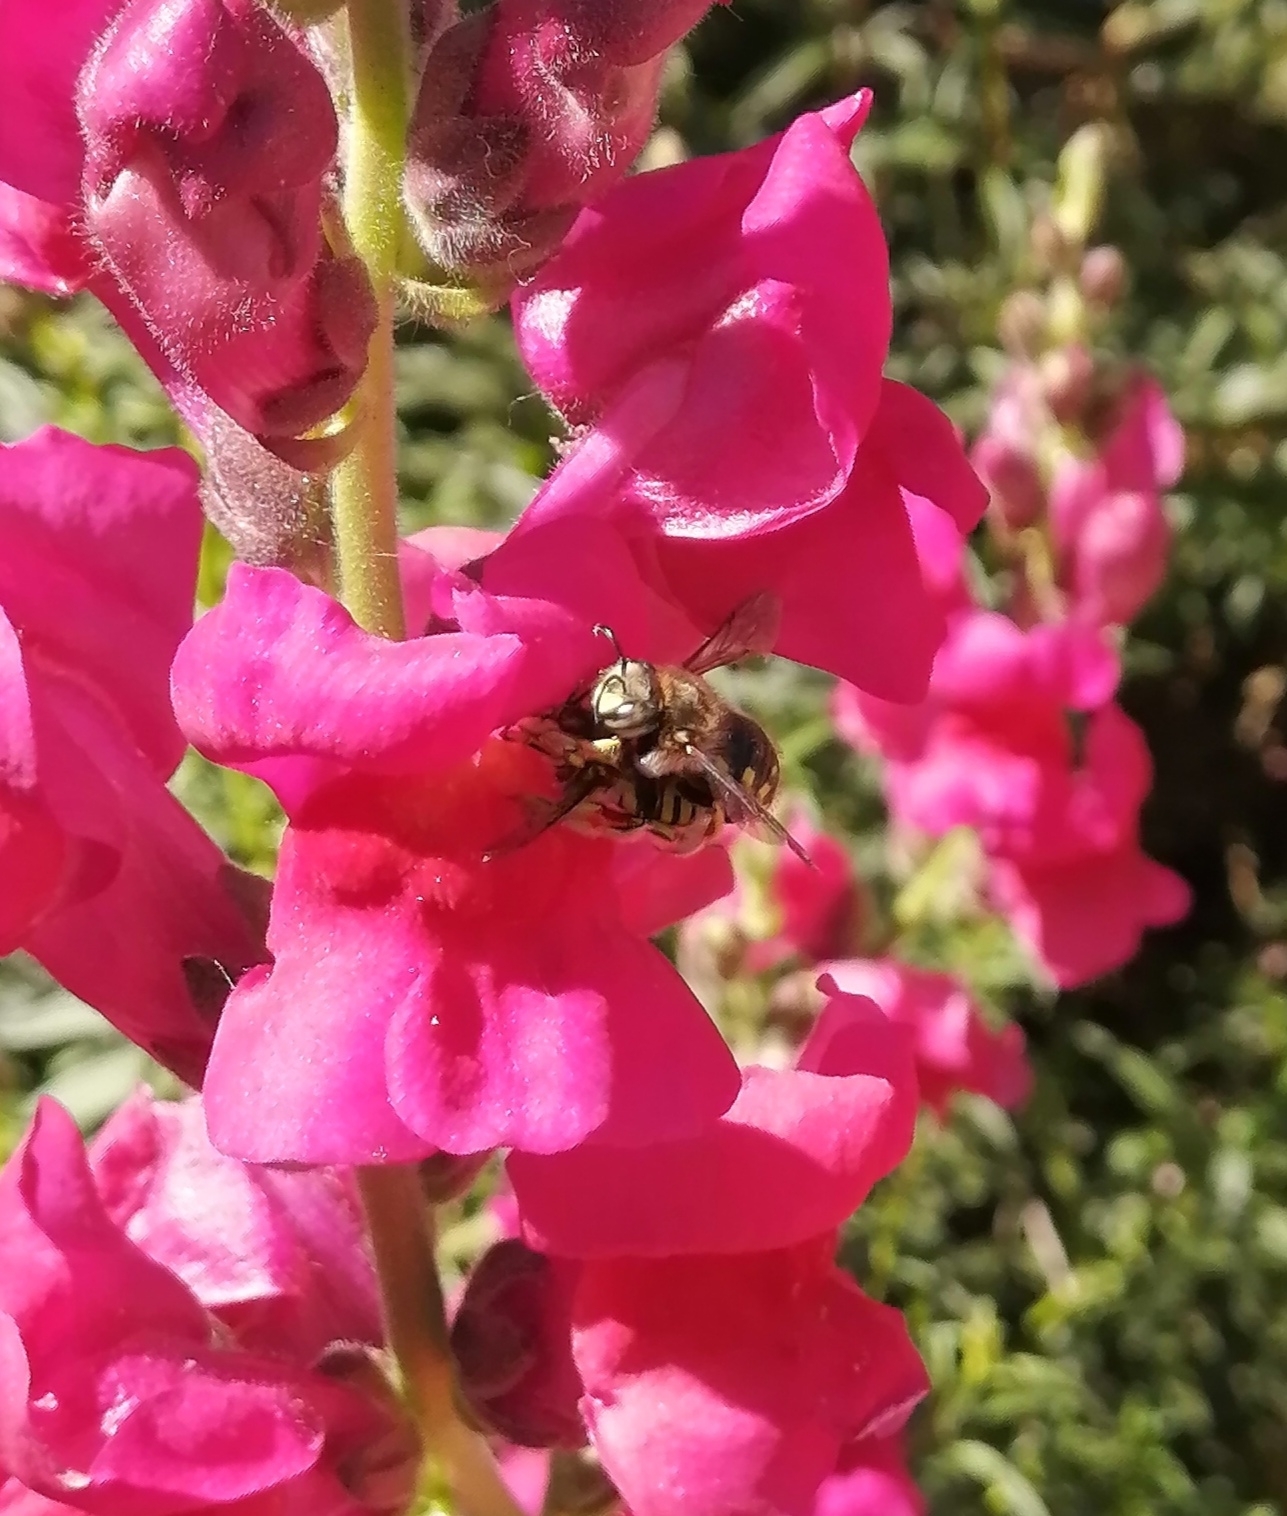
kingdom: Animalia
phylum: Arthropoda
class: Insecta
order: Hymenoptera
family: Megachilidae
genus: Anthidium
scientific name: Anthidium manicatum
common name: Wool carder bee
